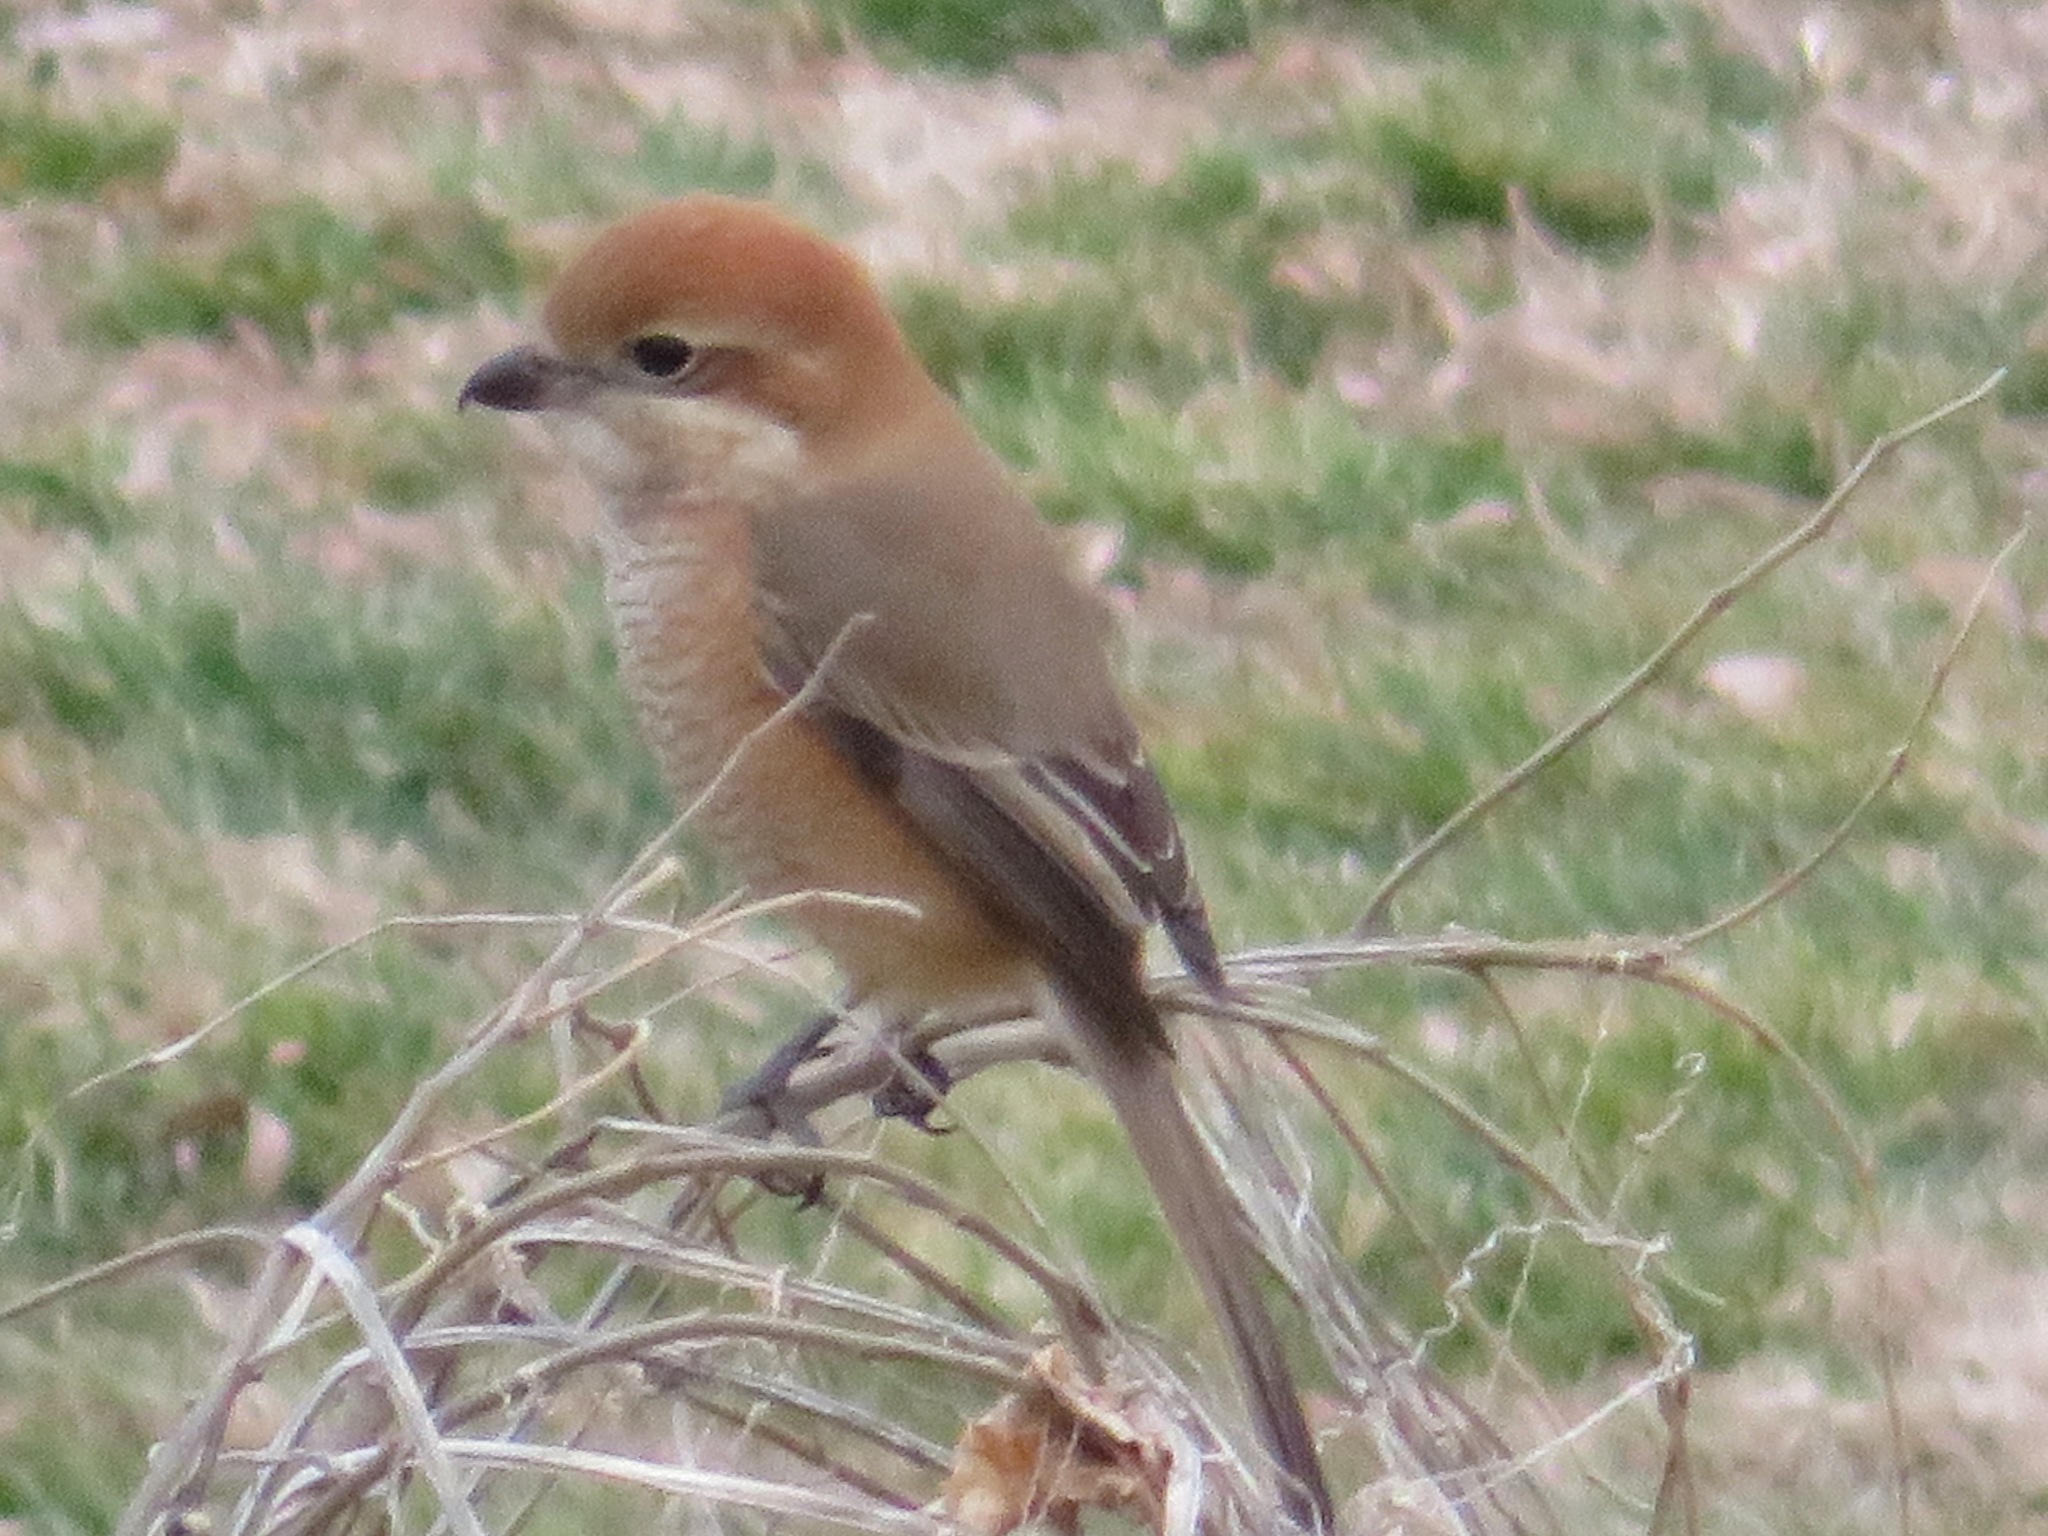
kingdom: Animalia
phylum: Chordata
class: Aves
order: Passeriformes
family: Laniidae
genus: Lanius
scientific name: Lanius bucephalus
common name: Bull-headed shrike
